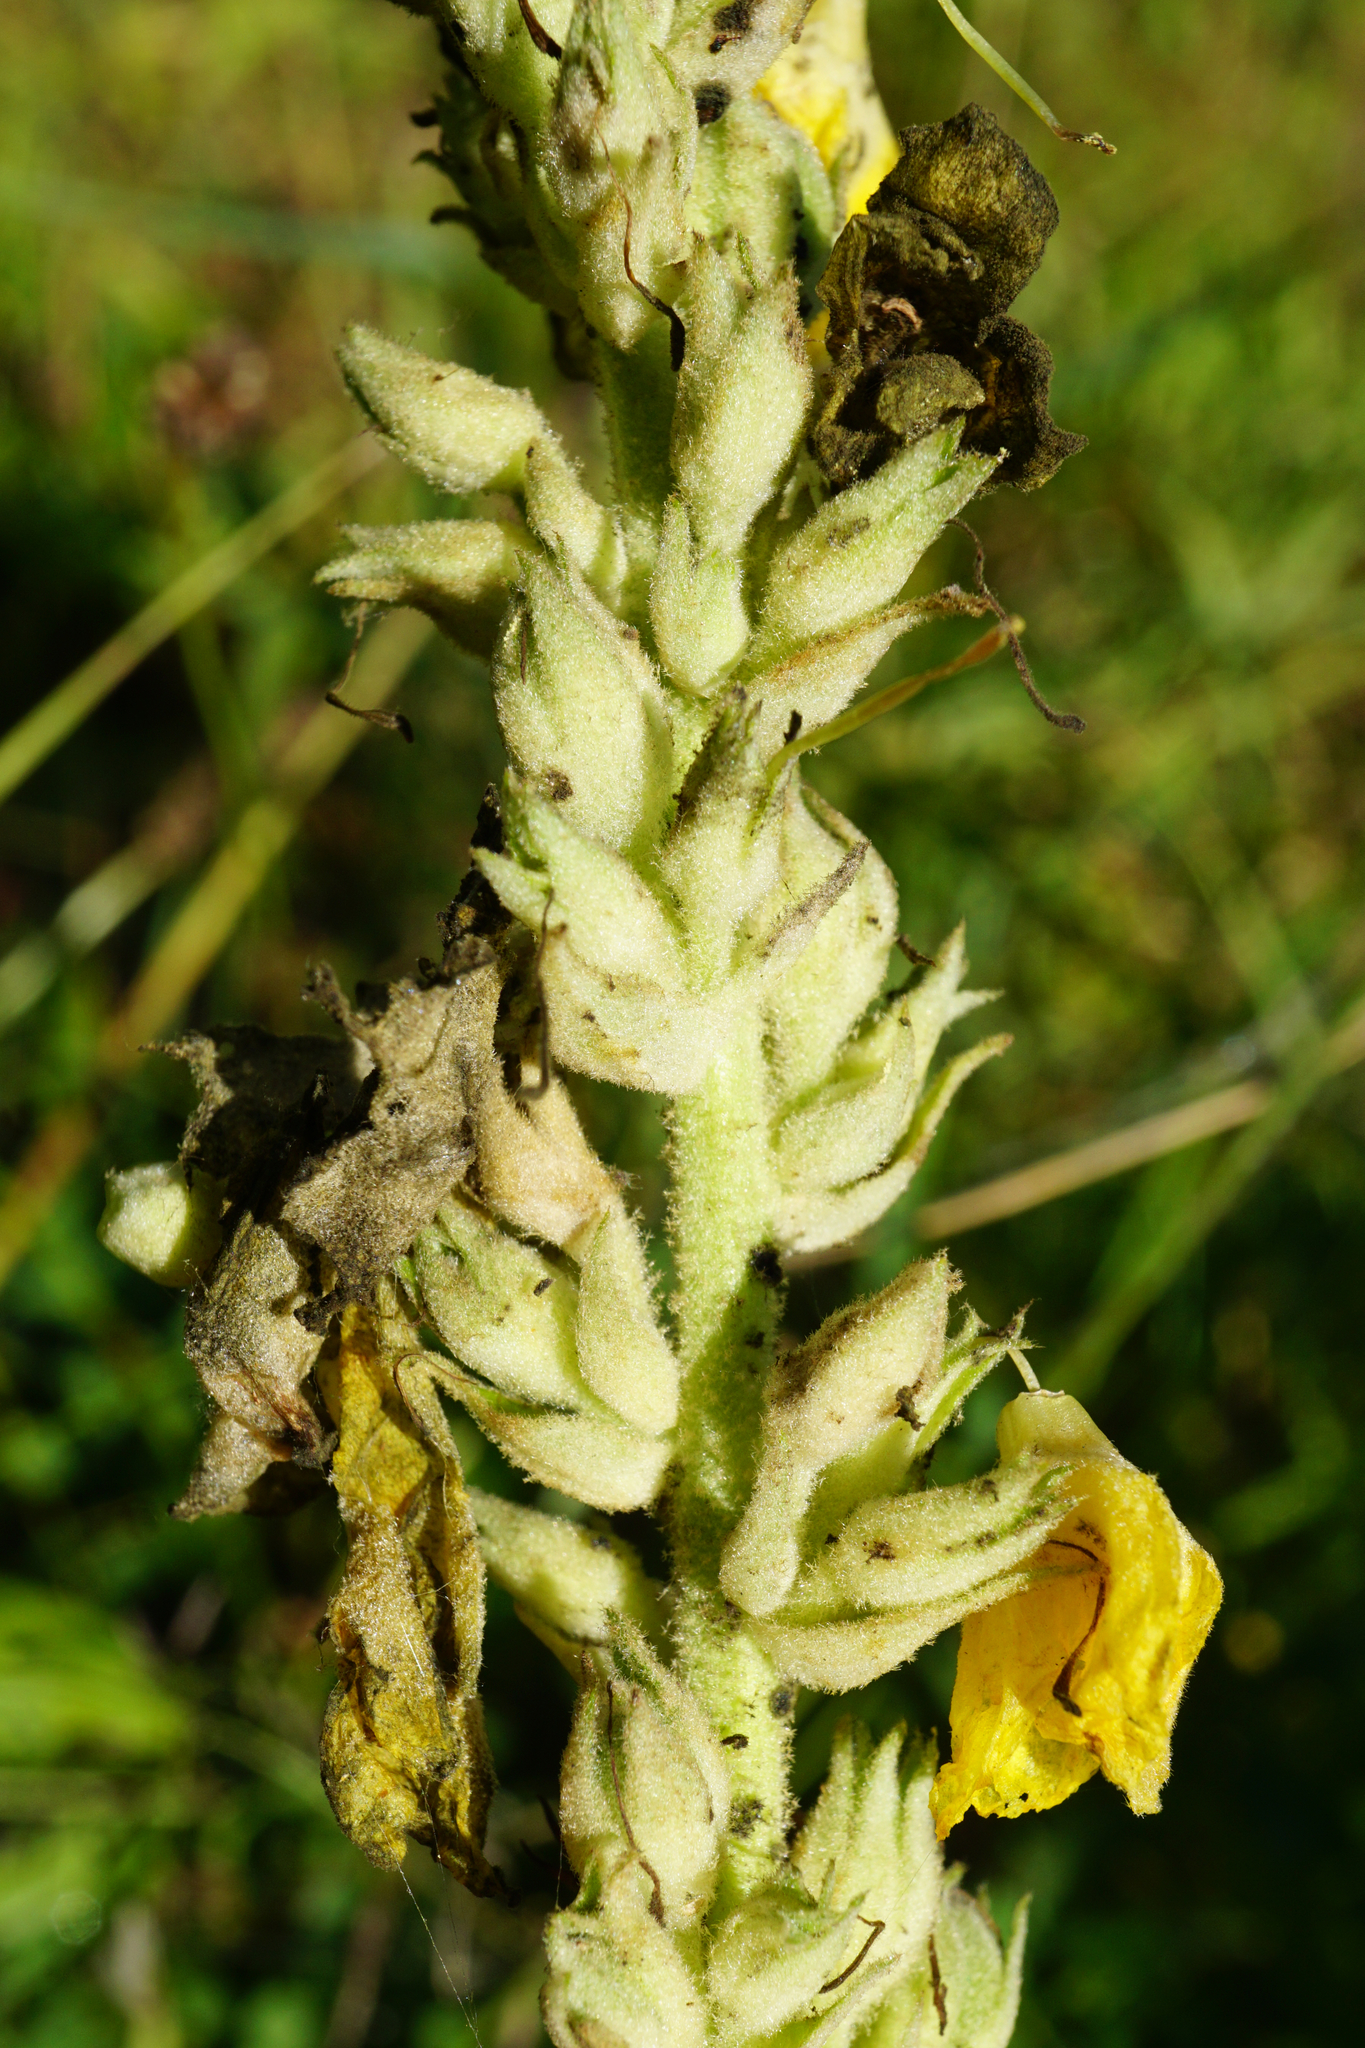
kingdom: Plantae
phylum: Tracheophyta
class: Magnoliopsida
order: Lamiales
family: Scrophulariaceae
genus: Verbascum
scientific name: Verbascum phlomoides
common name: Orange mullein
